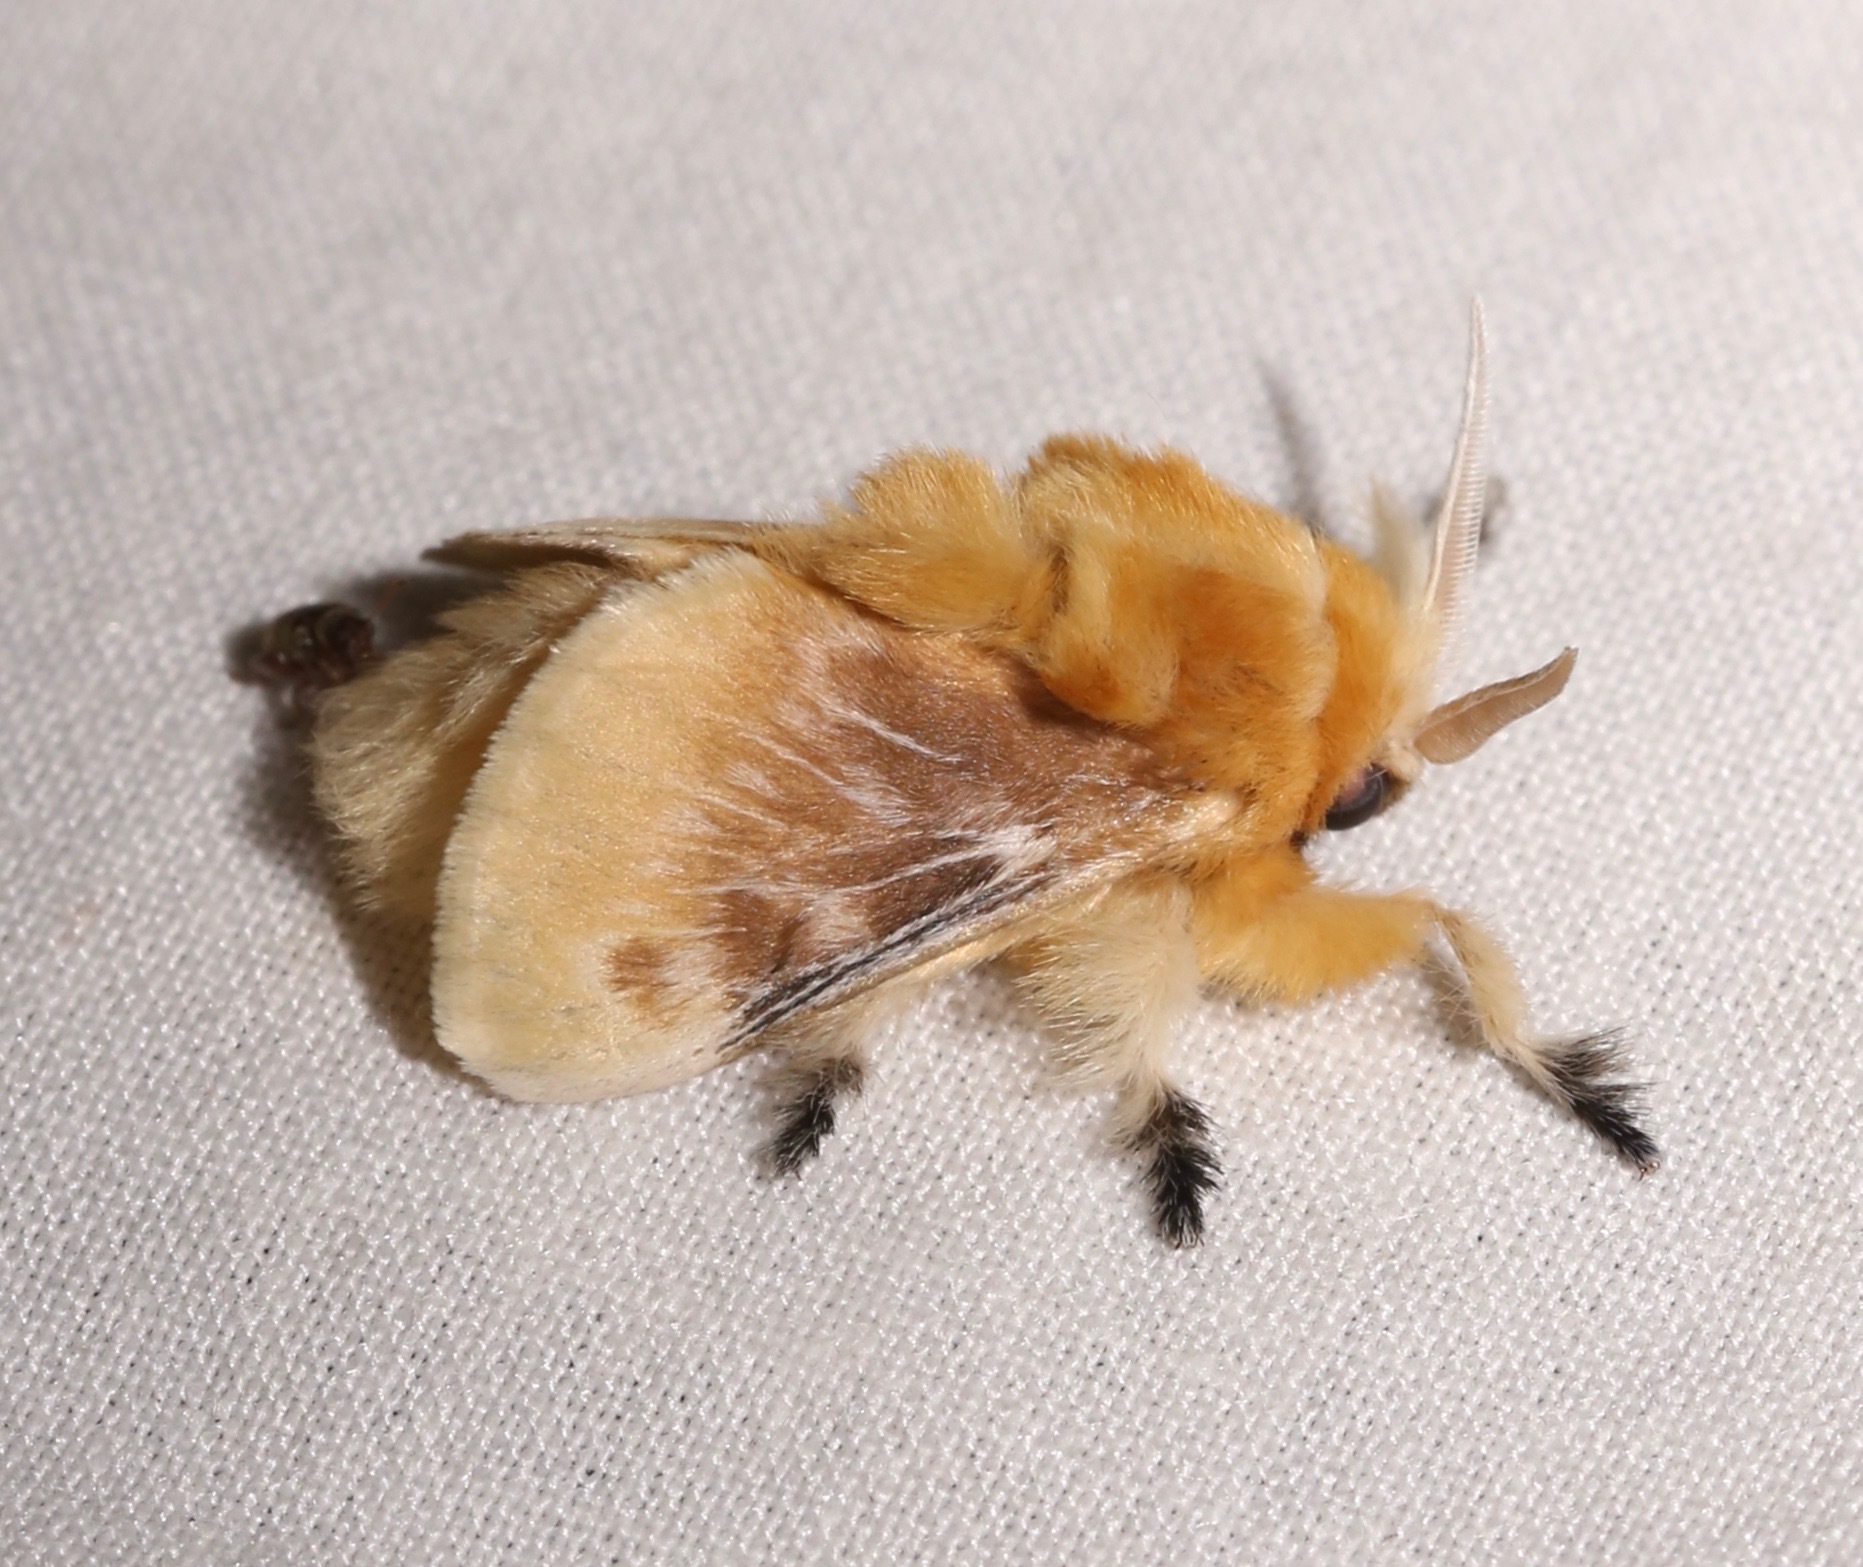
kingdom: Animalia
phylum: Arthropoda
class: Insecta
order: Lepidoptera
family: Megalopygidae
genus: Megalopyge
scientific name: Megalopyge opercularis
